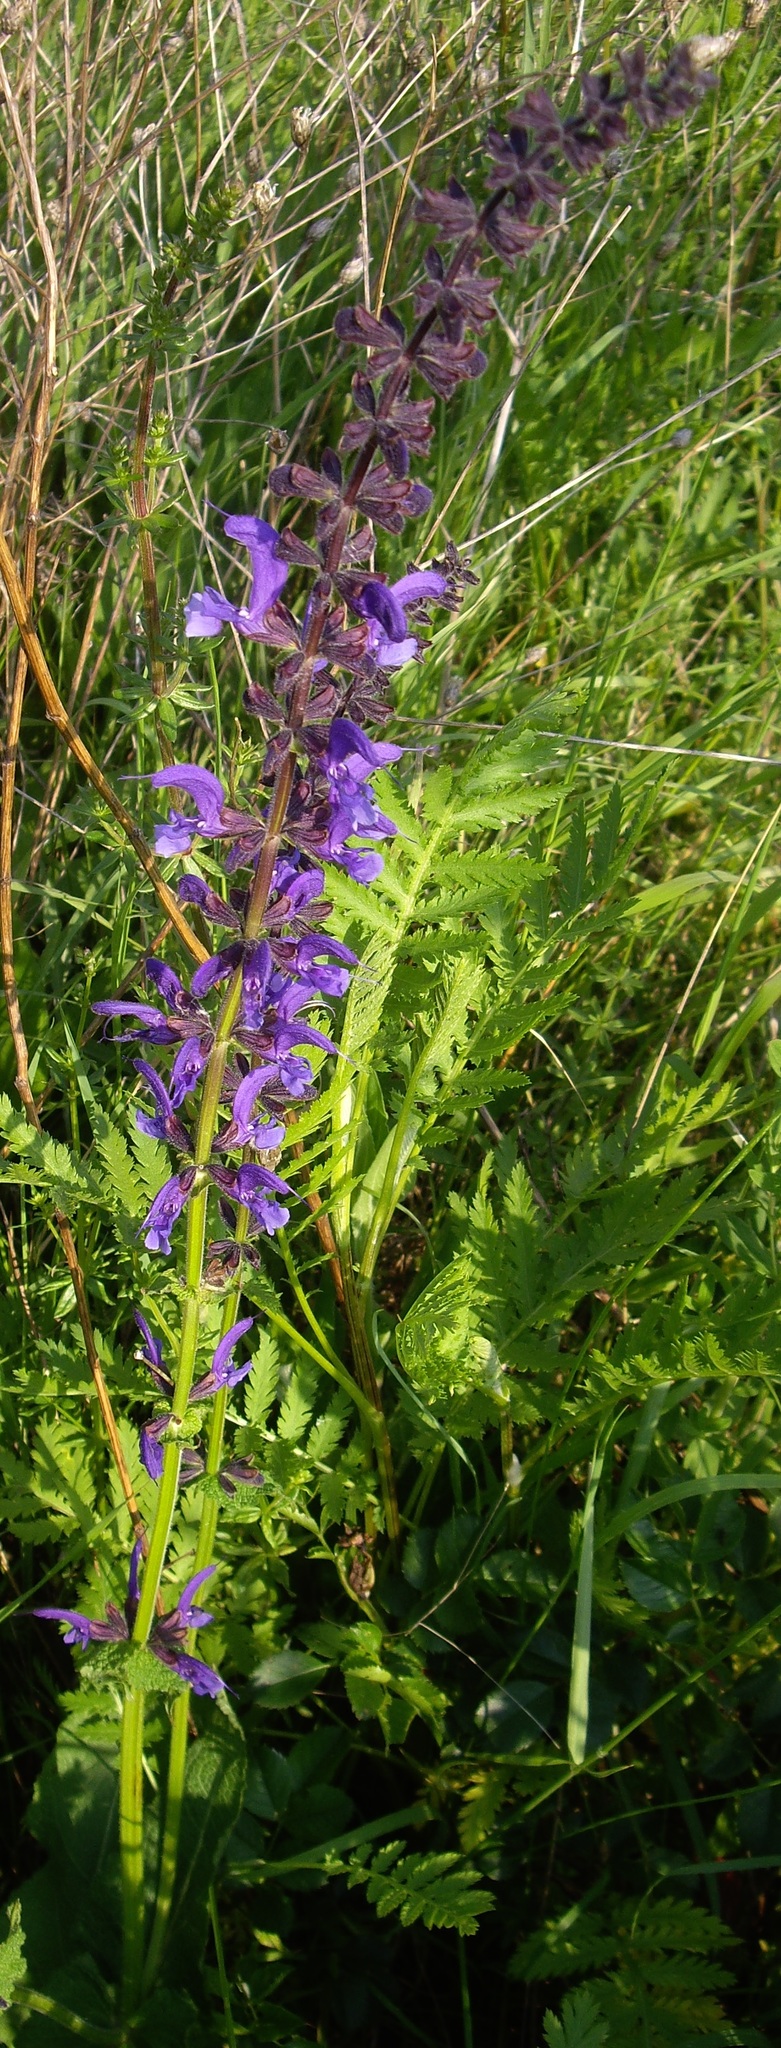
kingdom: Plantae
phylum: Tracheophyta
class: Magnoliopsida
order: Lamiales
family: Lamiaceae
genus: Salvia
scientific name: Salvia pratensis
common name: Meadow sage
